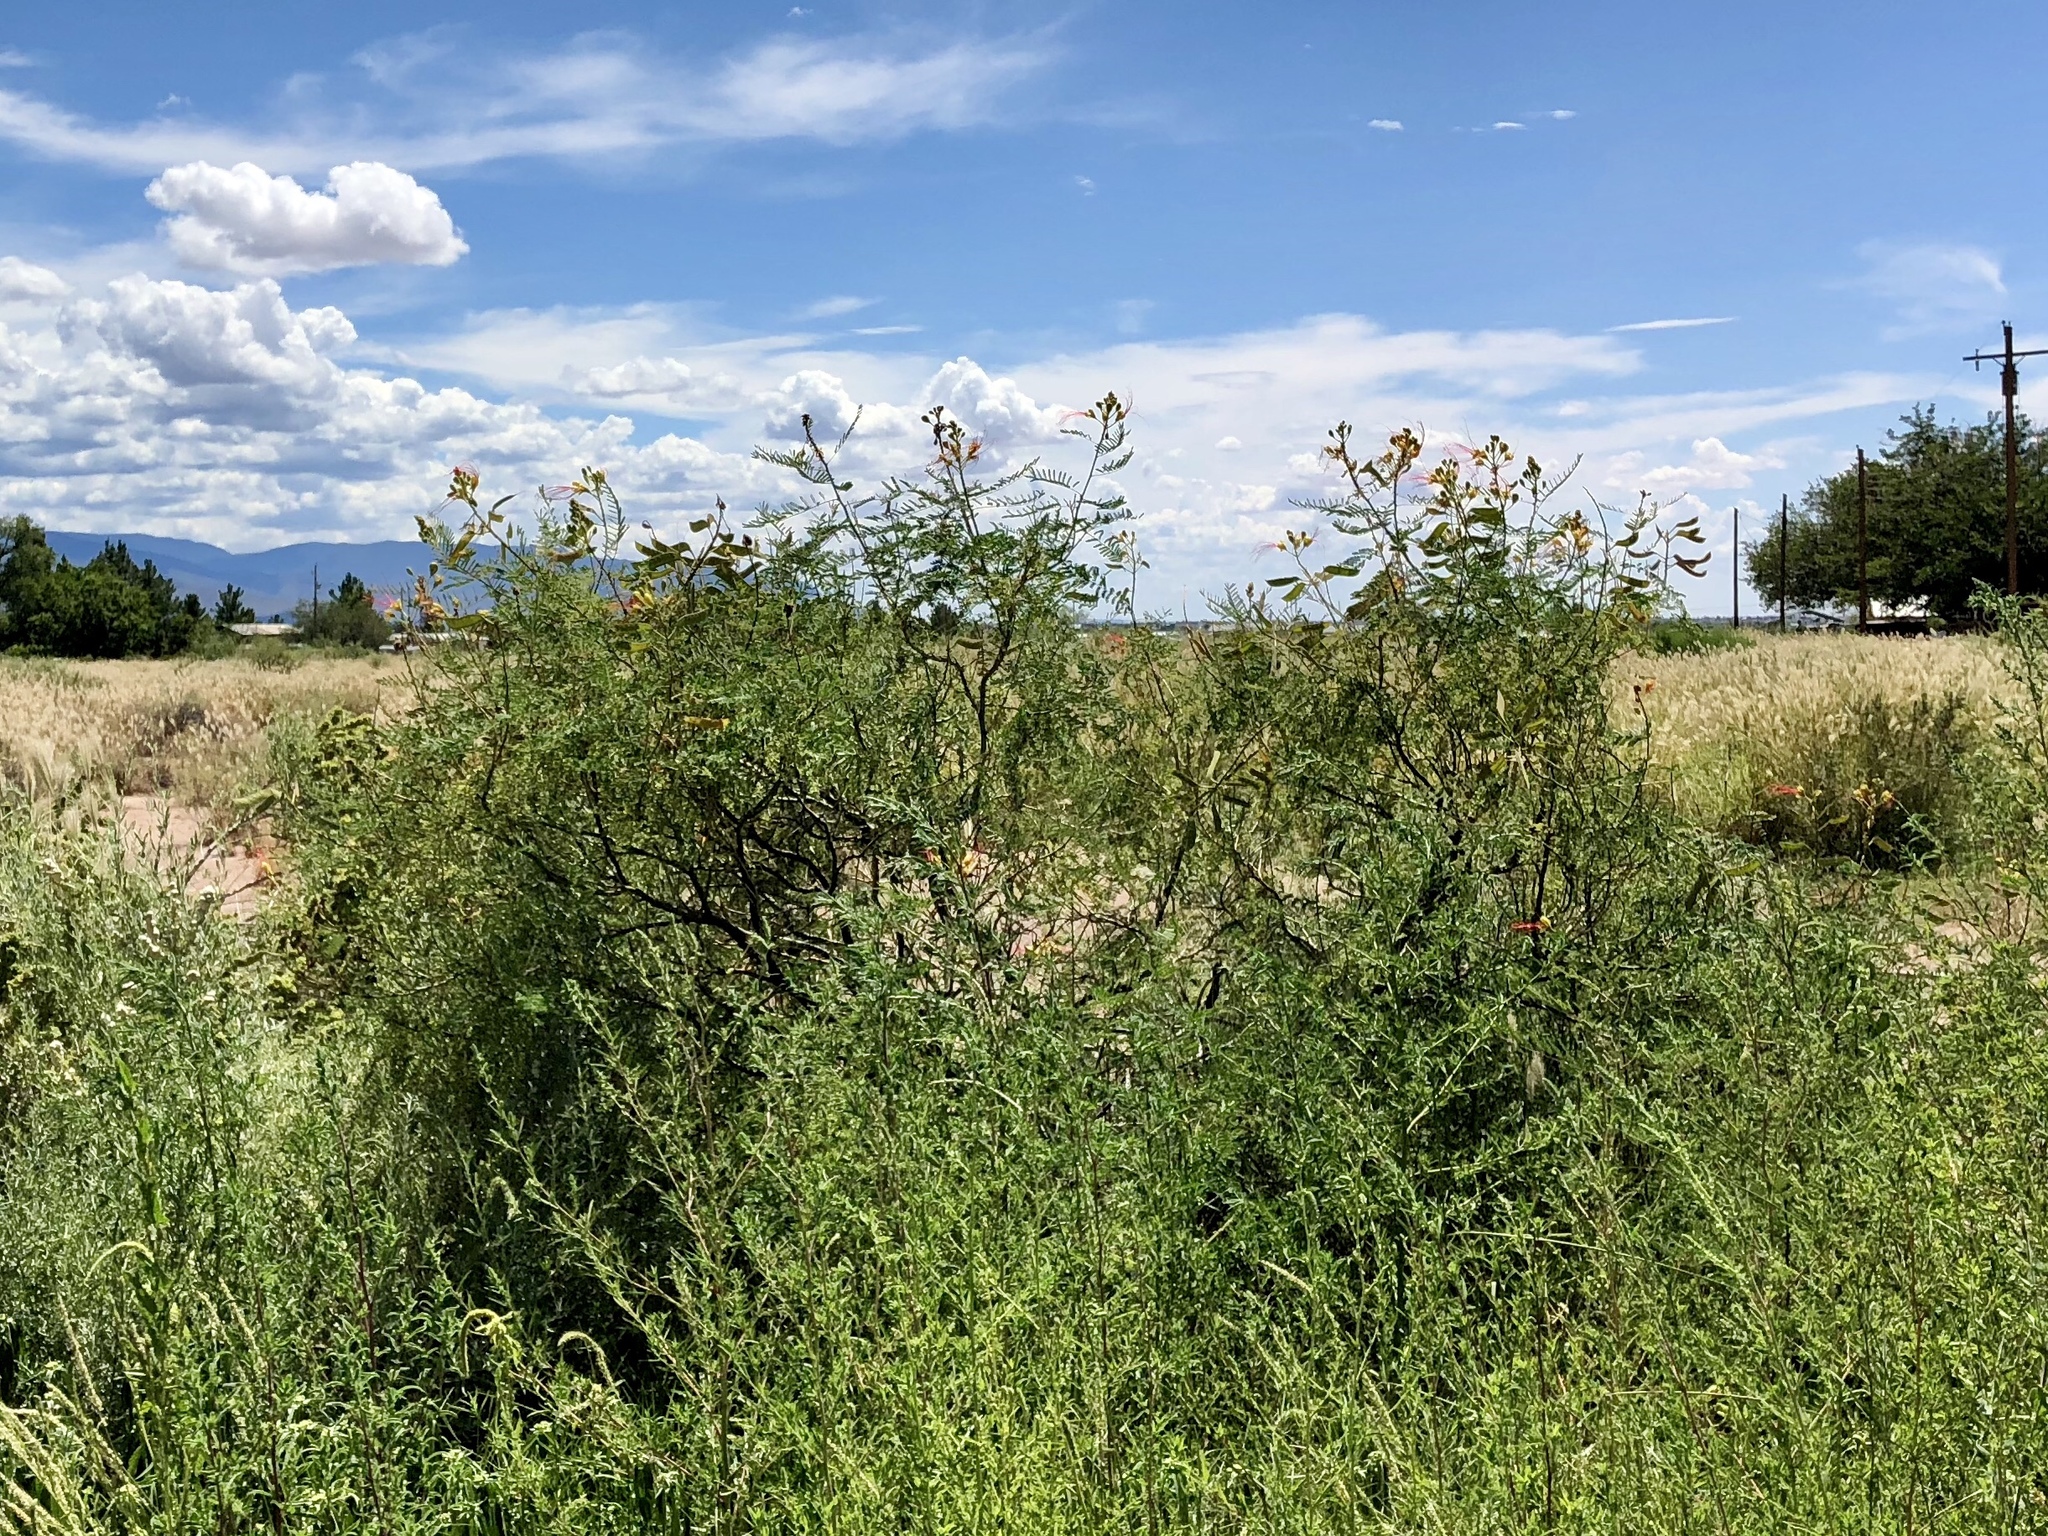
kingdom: Plantae
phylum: Tracheophyta
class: Magnoliopsida
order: Fabales
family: Fabaceae
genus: Erythrostemon
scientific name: Erythrostemon gilliesii
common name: Bird-of-paradise shrub
